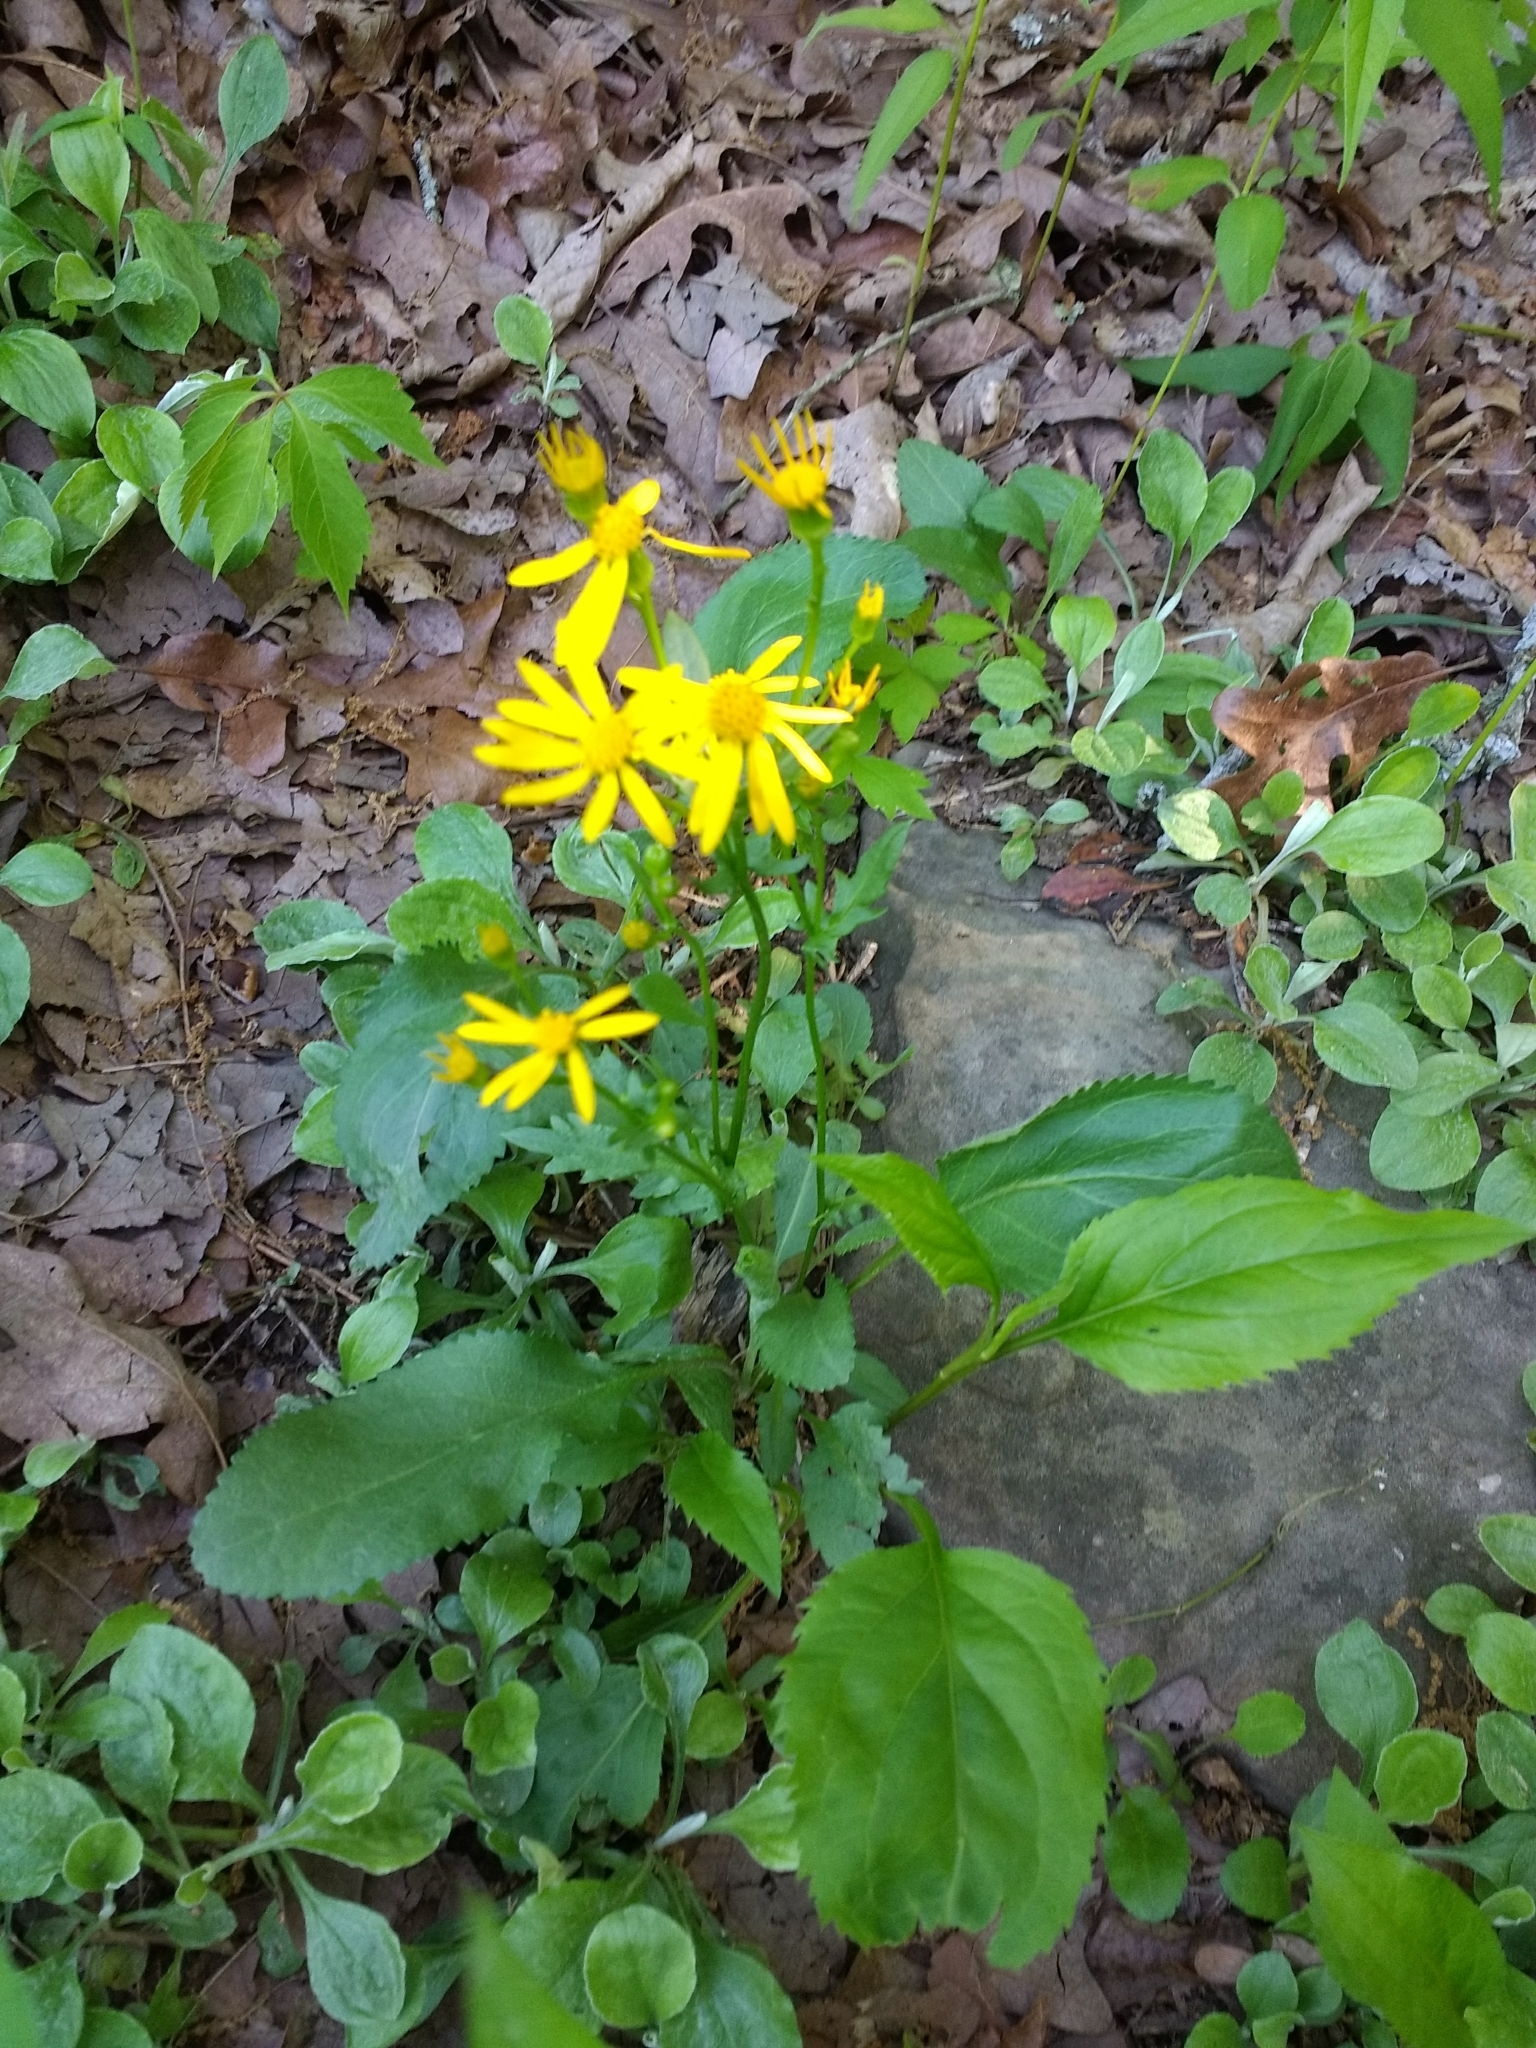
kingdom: Plantae
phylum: Tracheophyta
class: Magnoliopsida
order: Asterales
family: Asteraceae
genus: Packera
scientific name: Packera obovata
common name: Round-leaf ragwort
